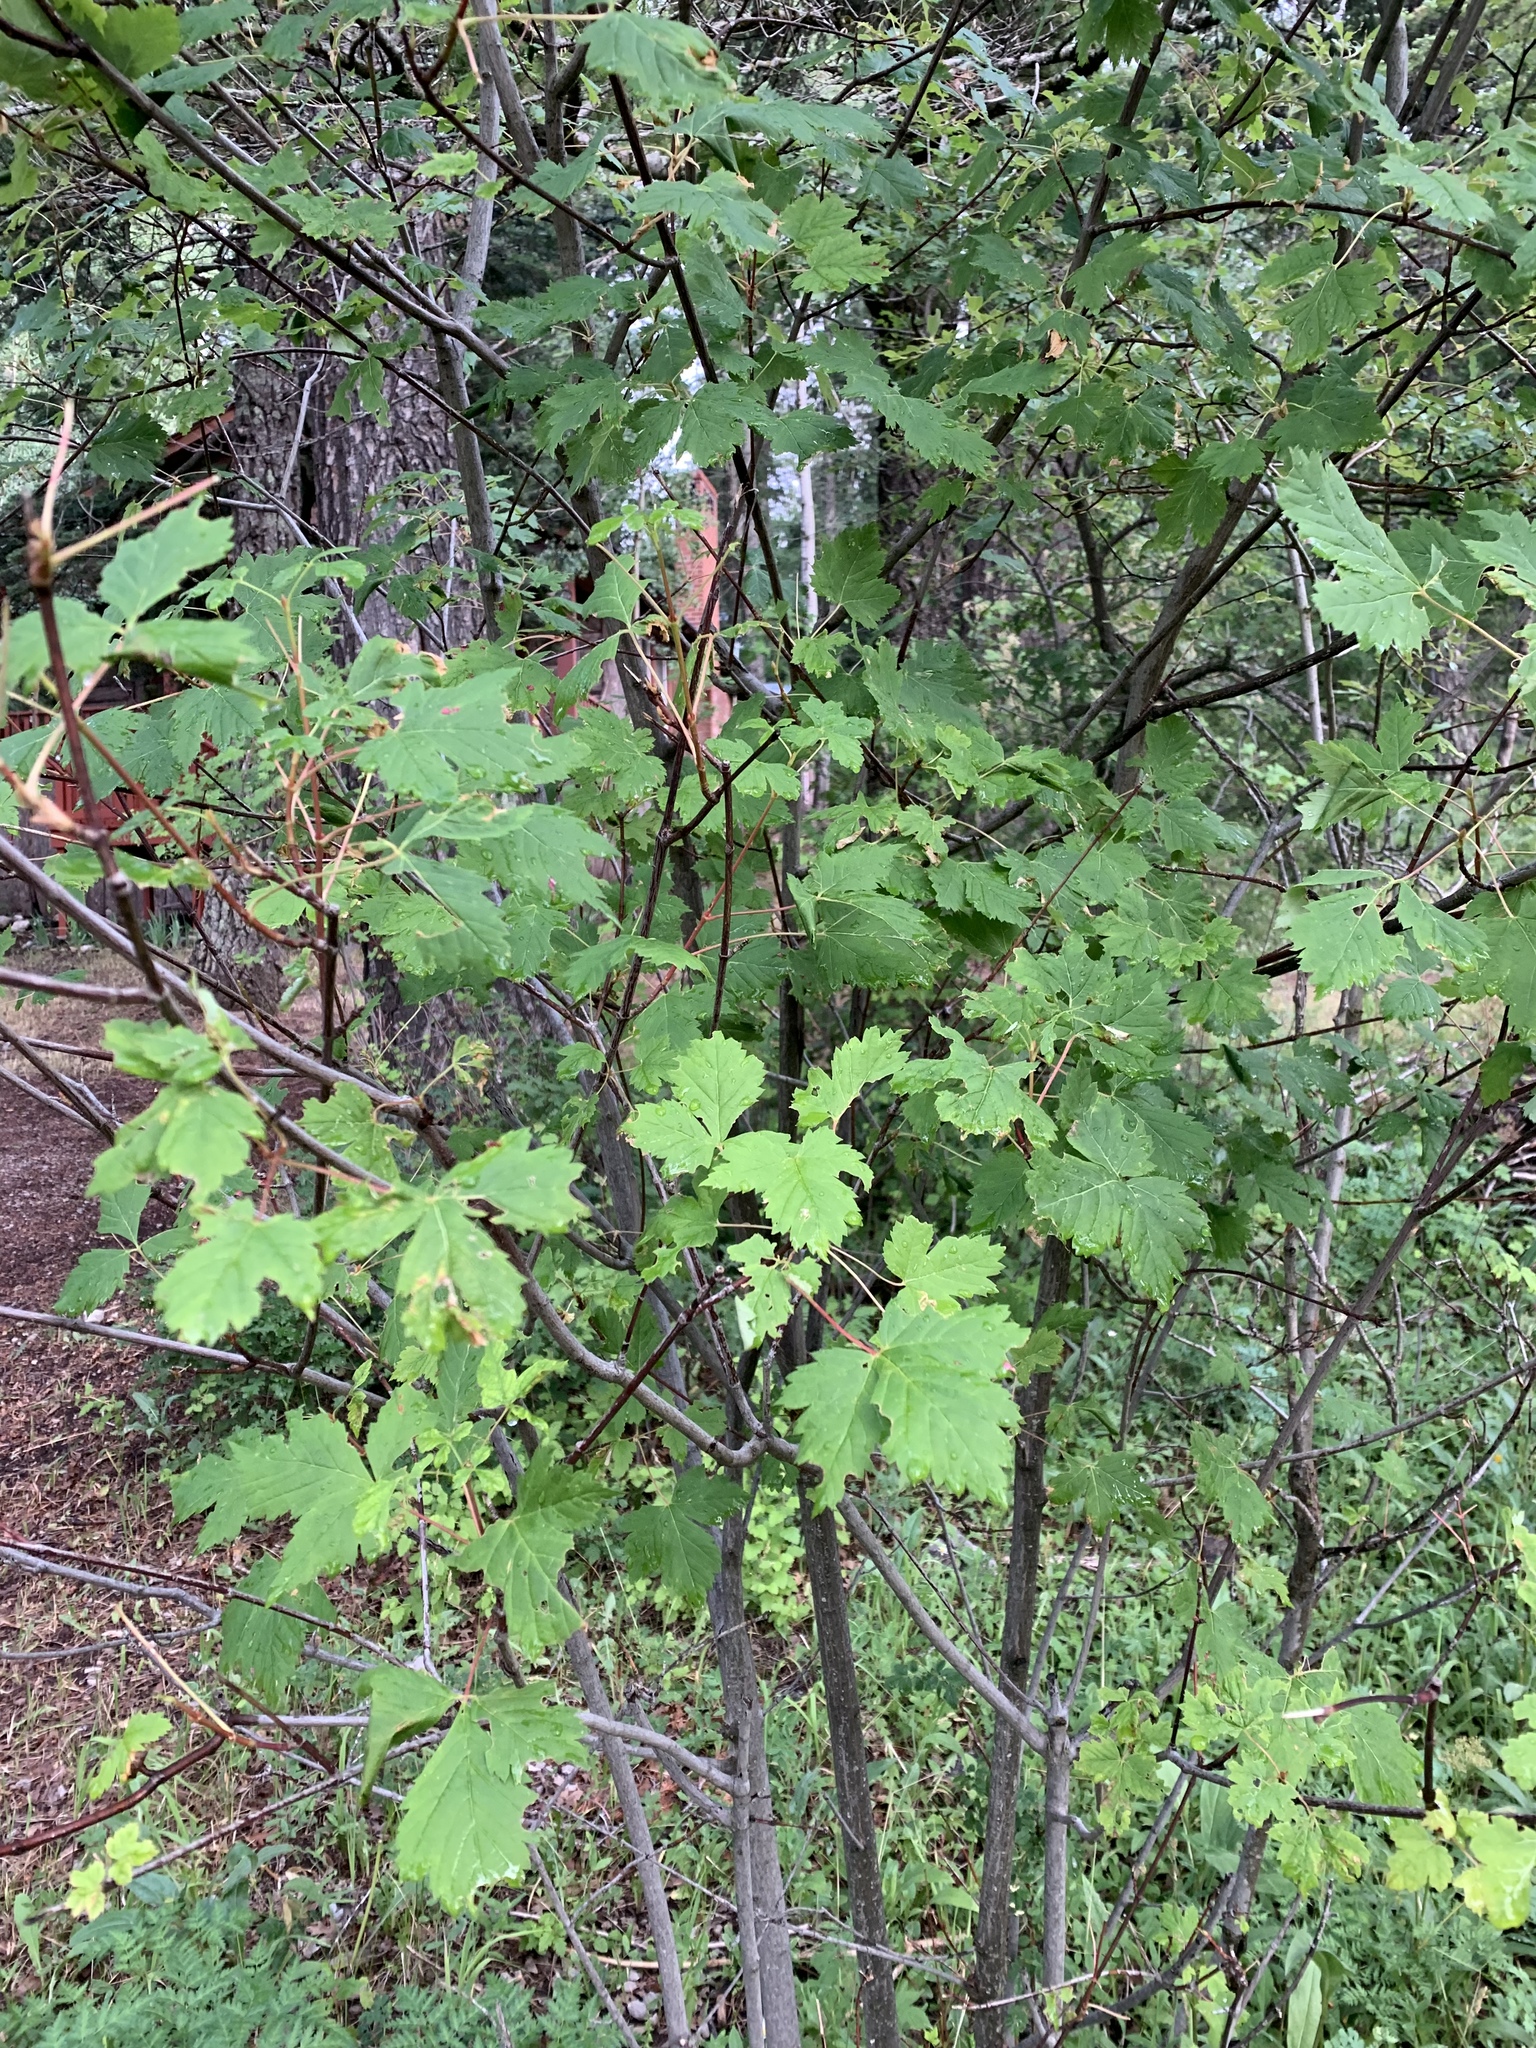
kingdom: Plantae
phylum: Tracheophyta
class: Magnoliopsida
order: Sapindales
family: Sapindaceae
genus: Acer
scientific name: Acer glabrum
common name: Rocky mountain maple
